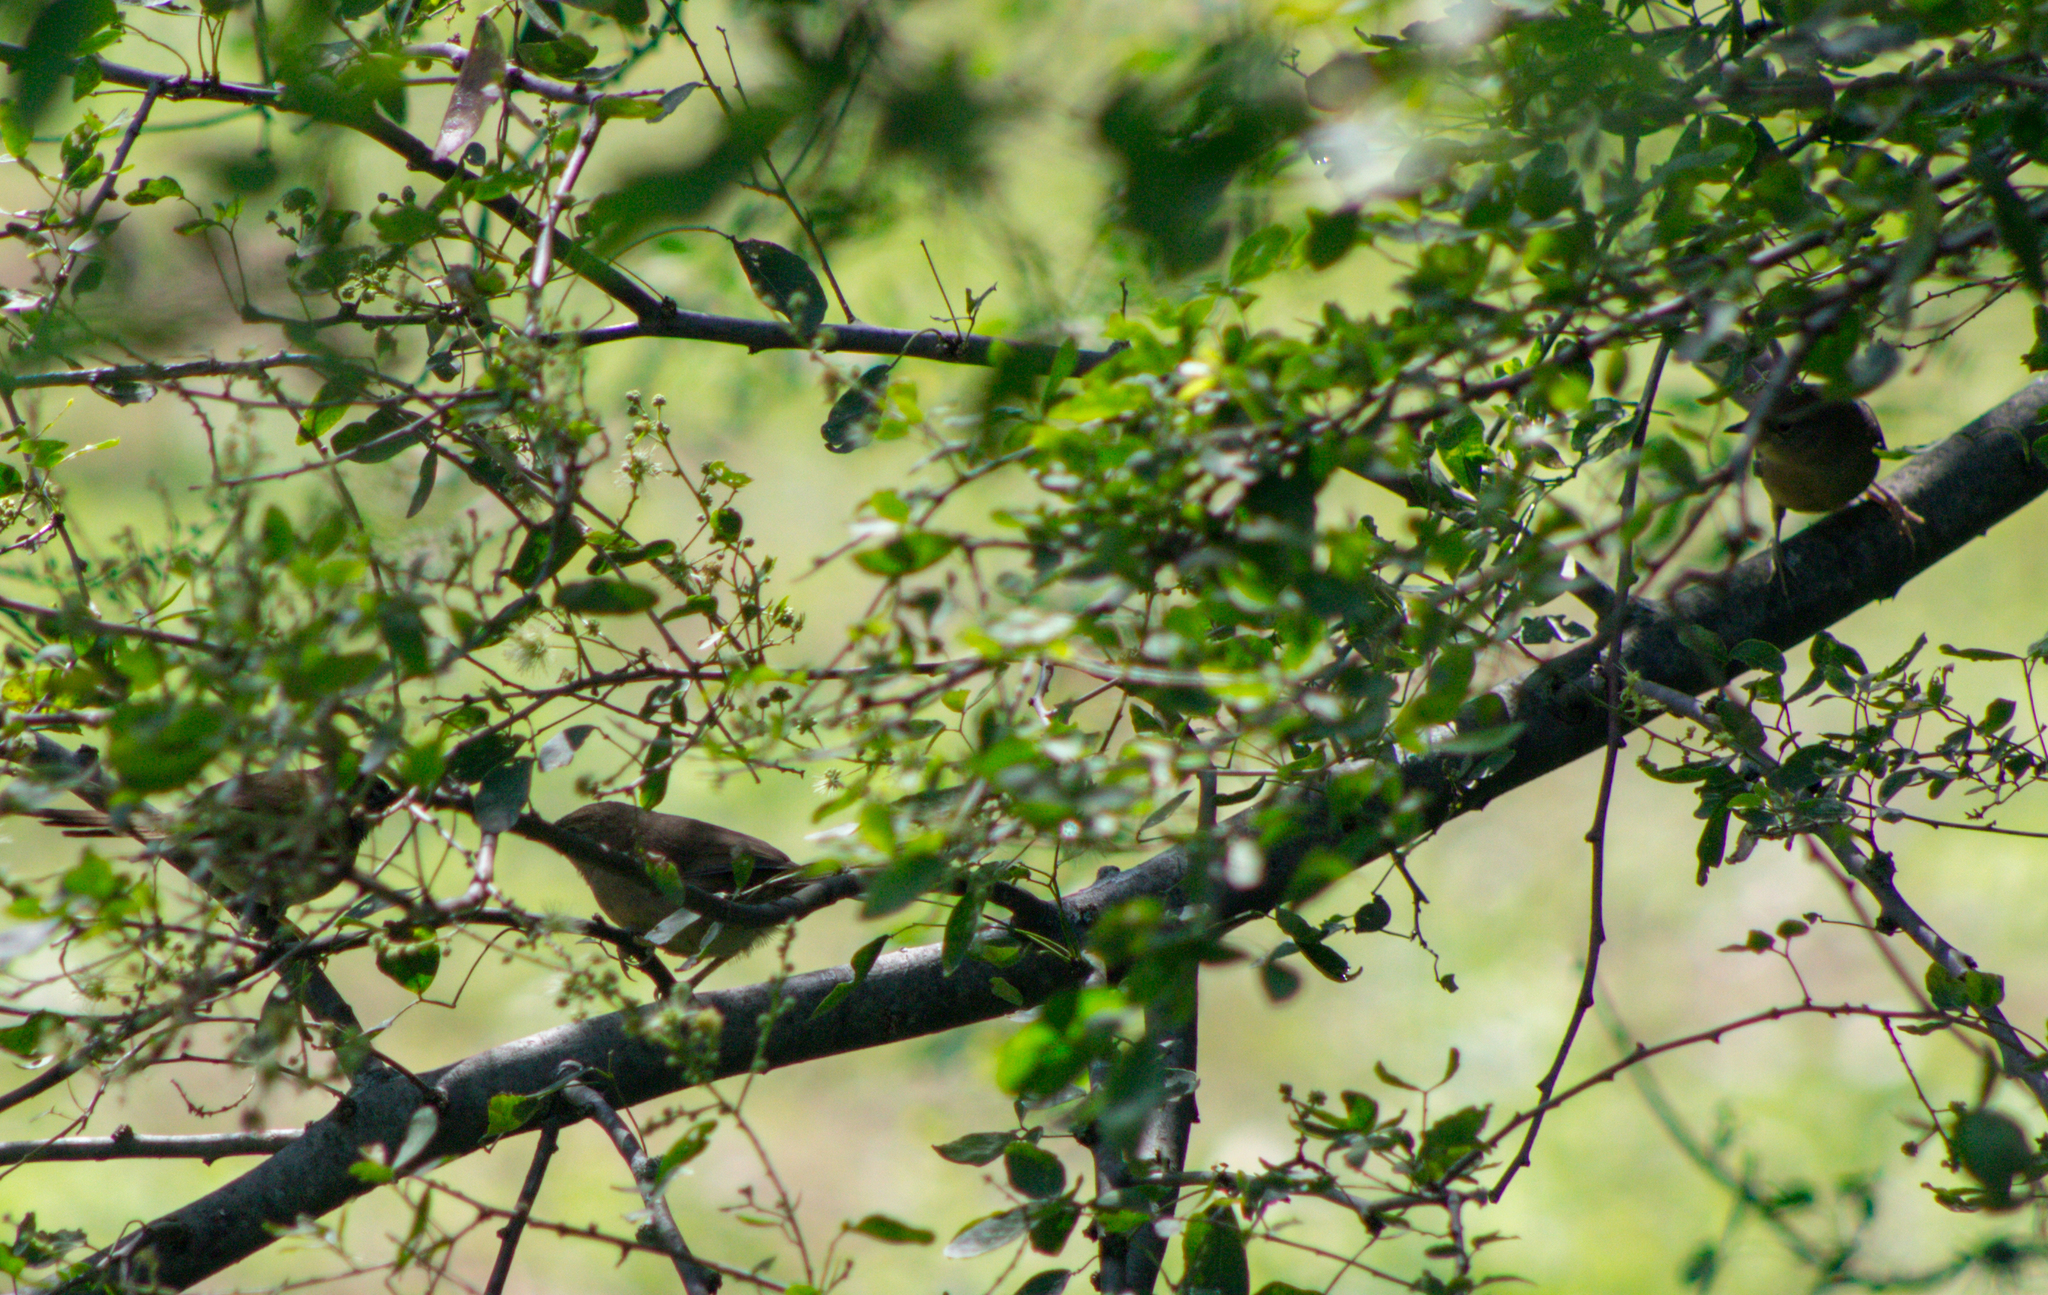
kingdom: Animalia
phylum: Chordata
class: Aves
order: Passeriformes
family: Troglodytidae
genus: Troglodytes
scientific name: Troglodytes aedon
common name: House wren
